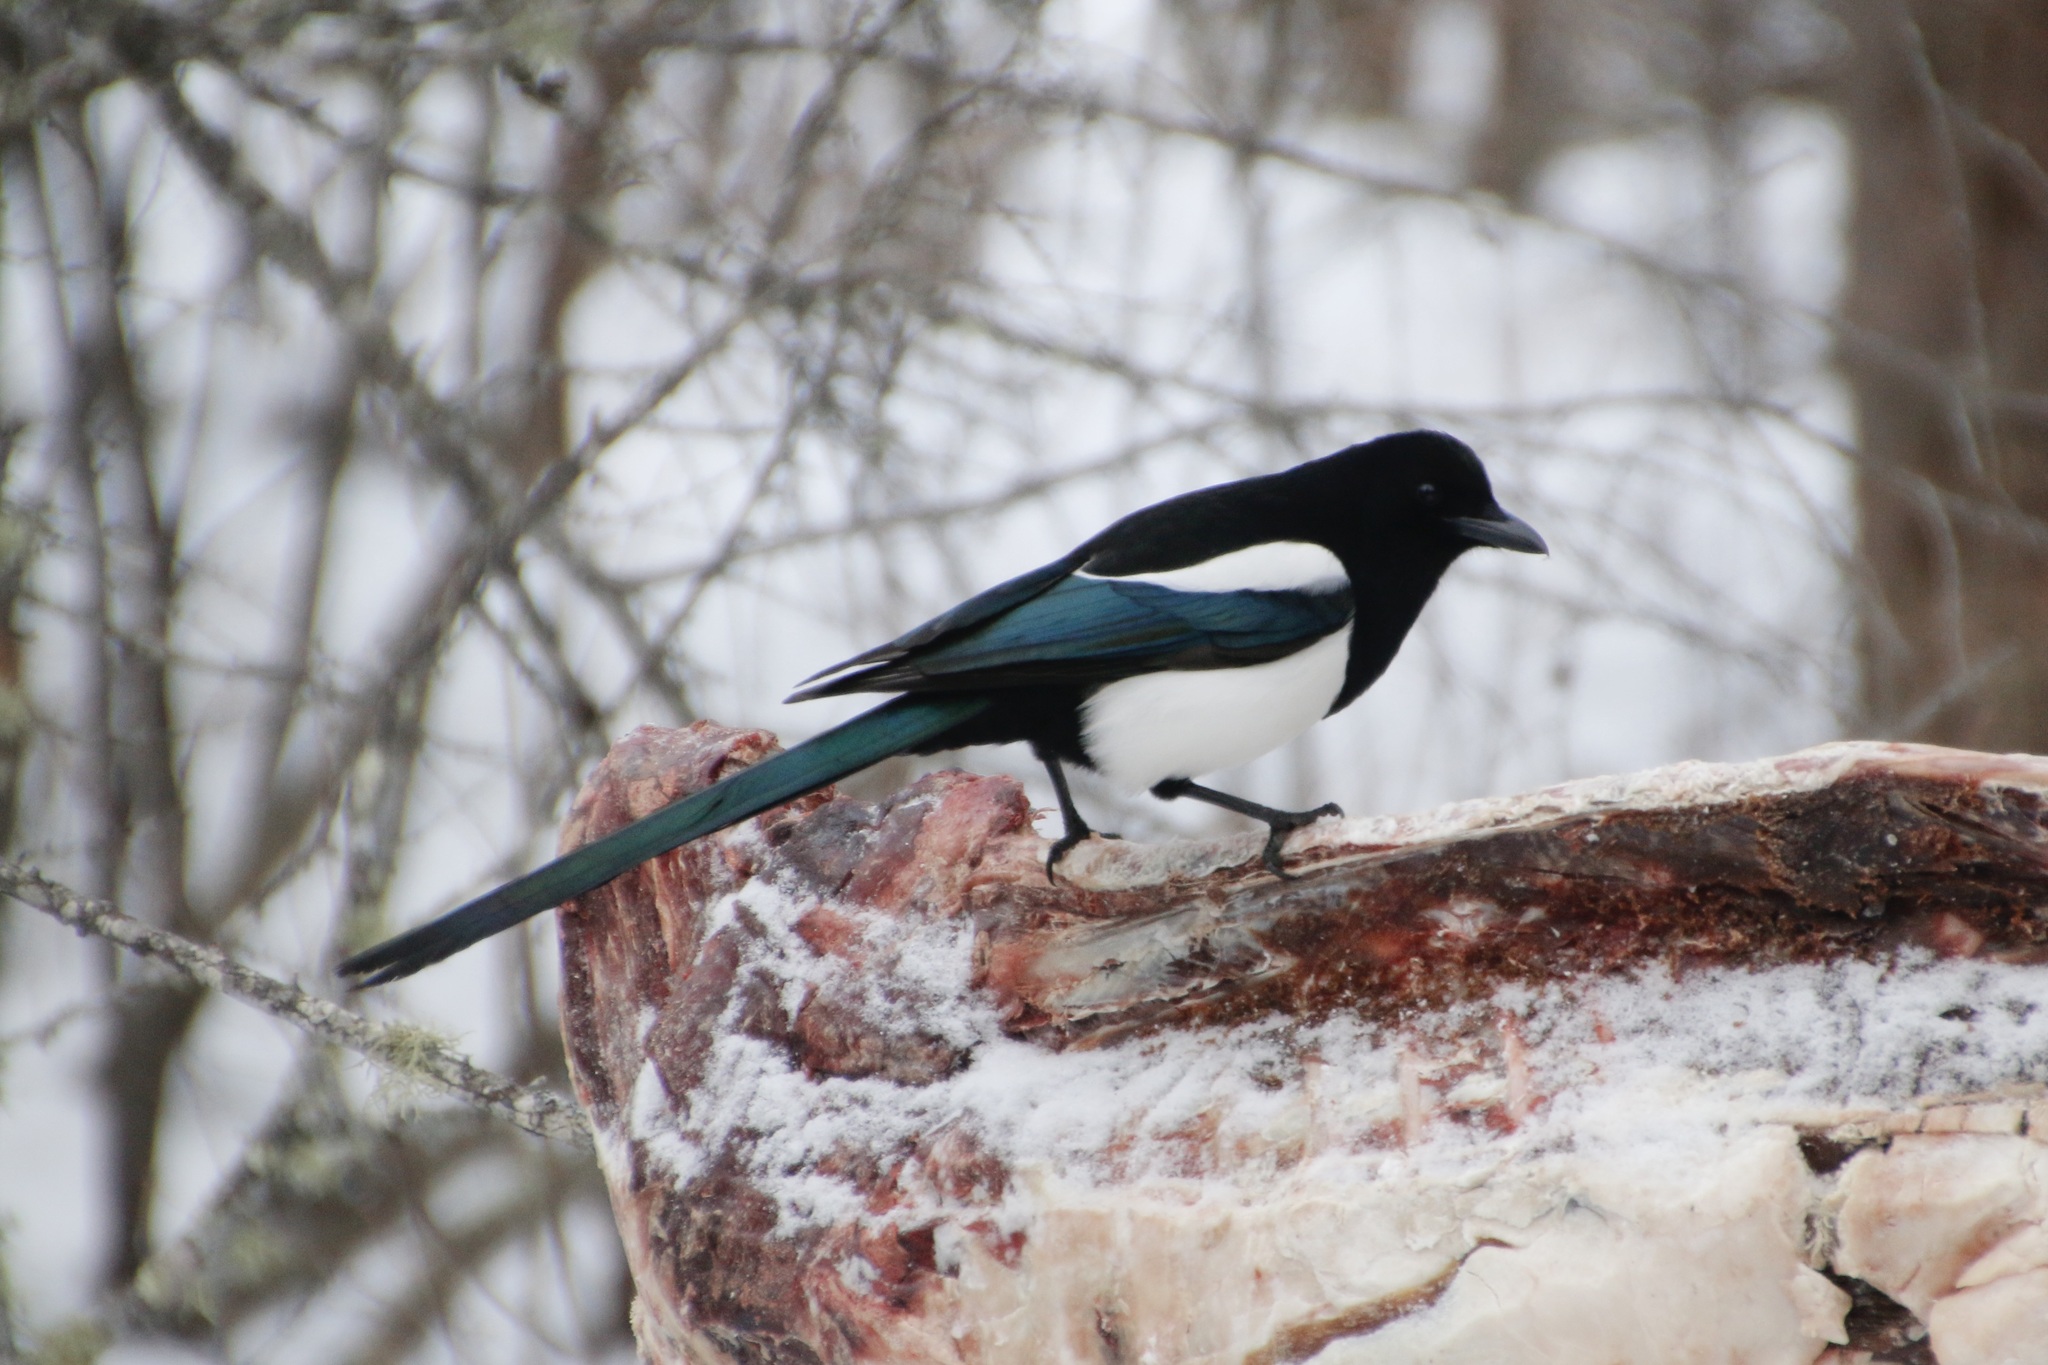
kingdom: Animalia
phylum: Chordata
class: Aves
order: Passeriformes
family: Corvidae
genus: Pica
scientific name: Pica hudsonia
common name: Black-billed magpie
